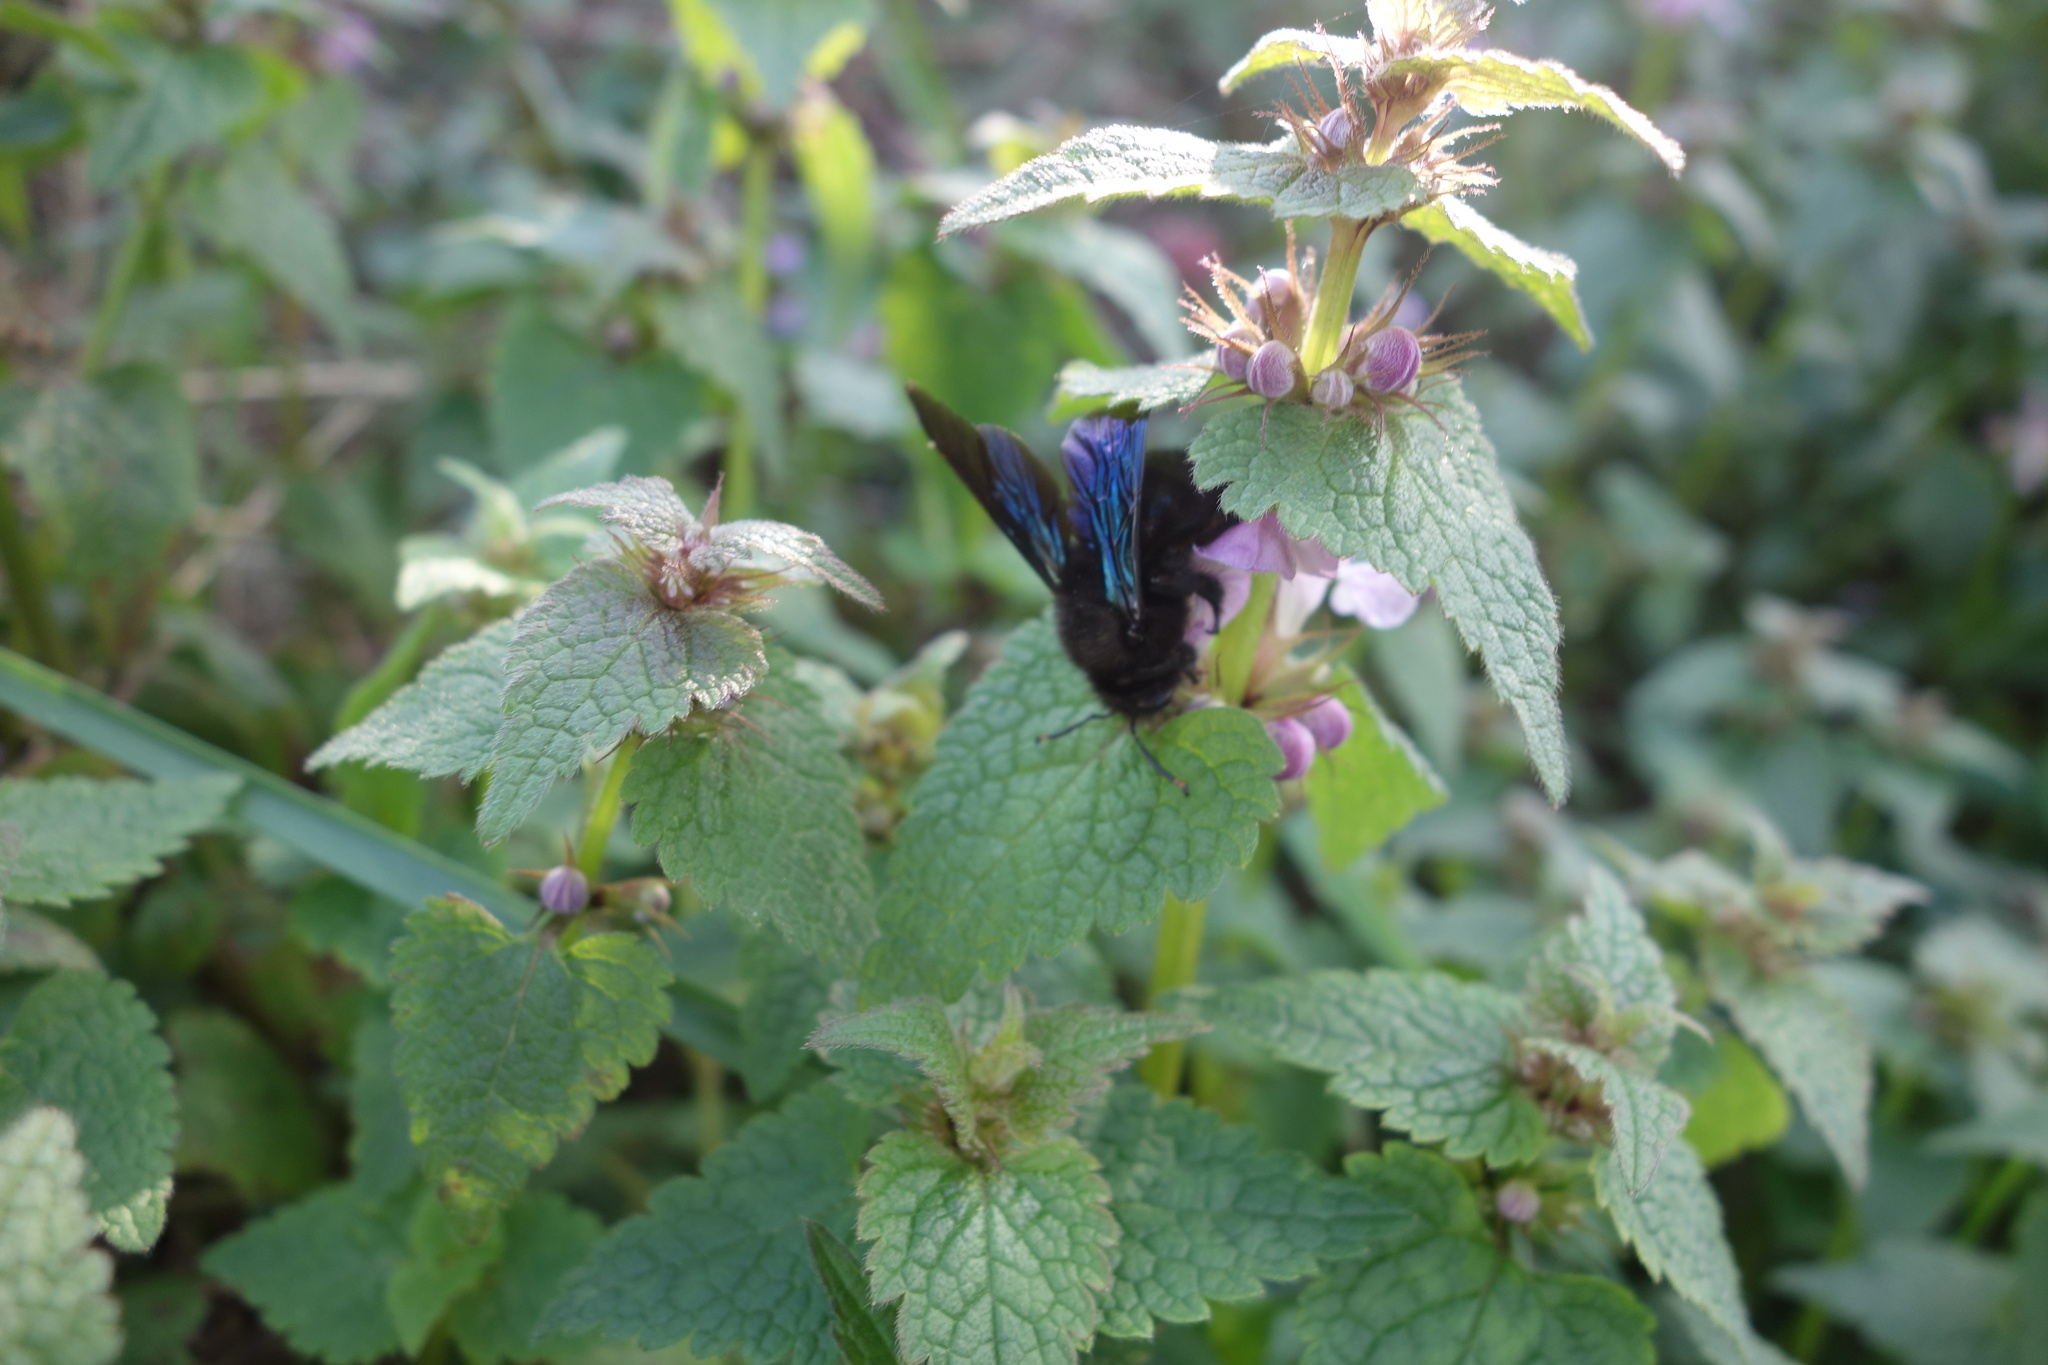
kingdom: Plantae
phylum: Tracheophyta
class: Magnoliopsida
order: Lamiales
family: Lamiaceae
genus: Lamium
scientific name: Lamium maculatum
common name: Spotted dead-nettle
